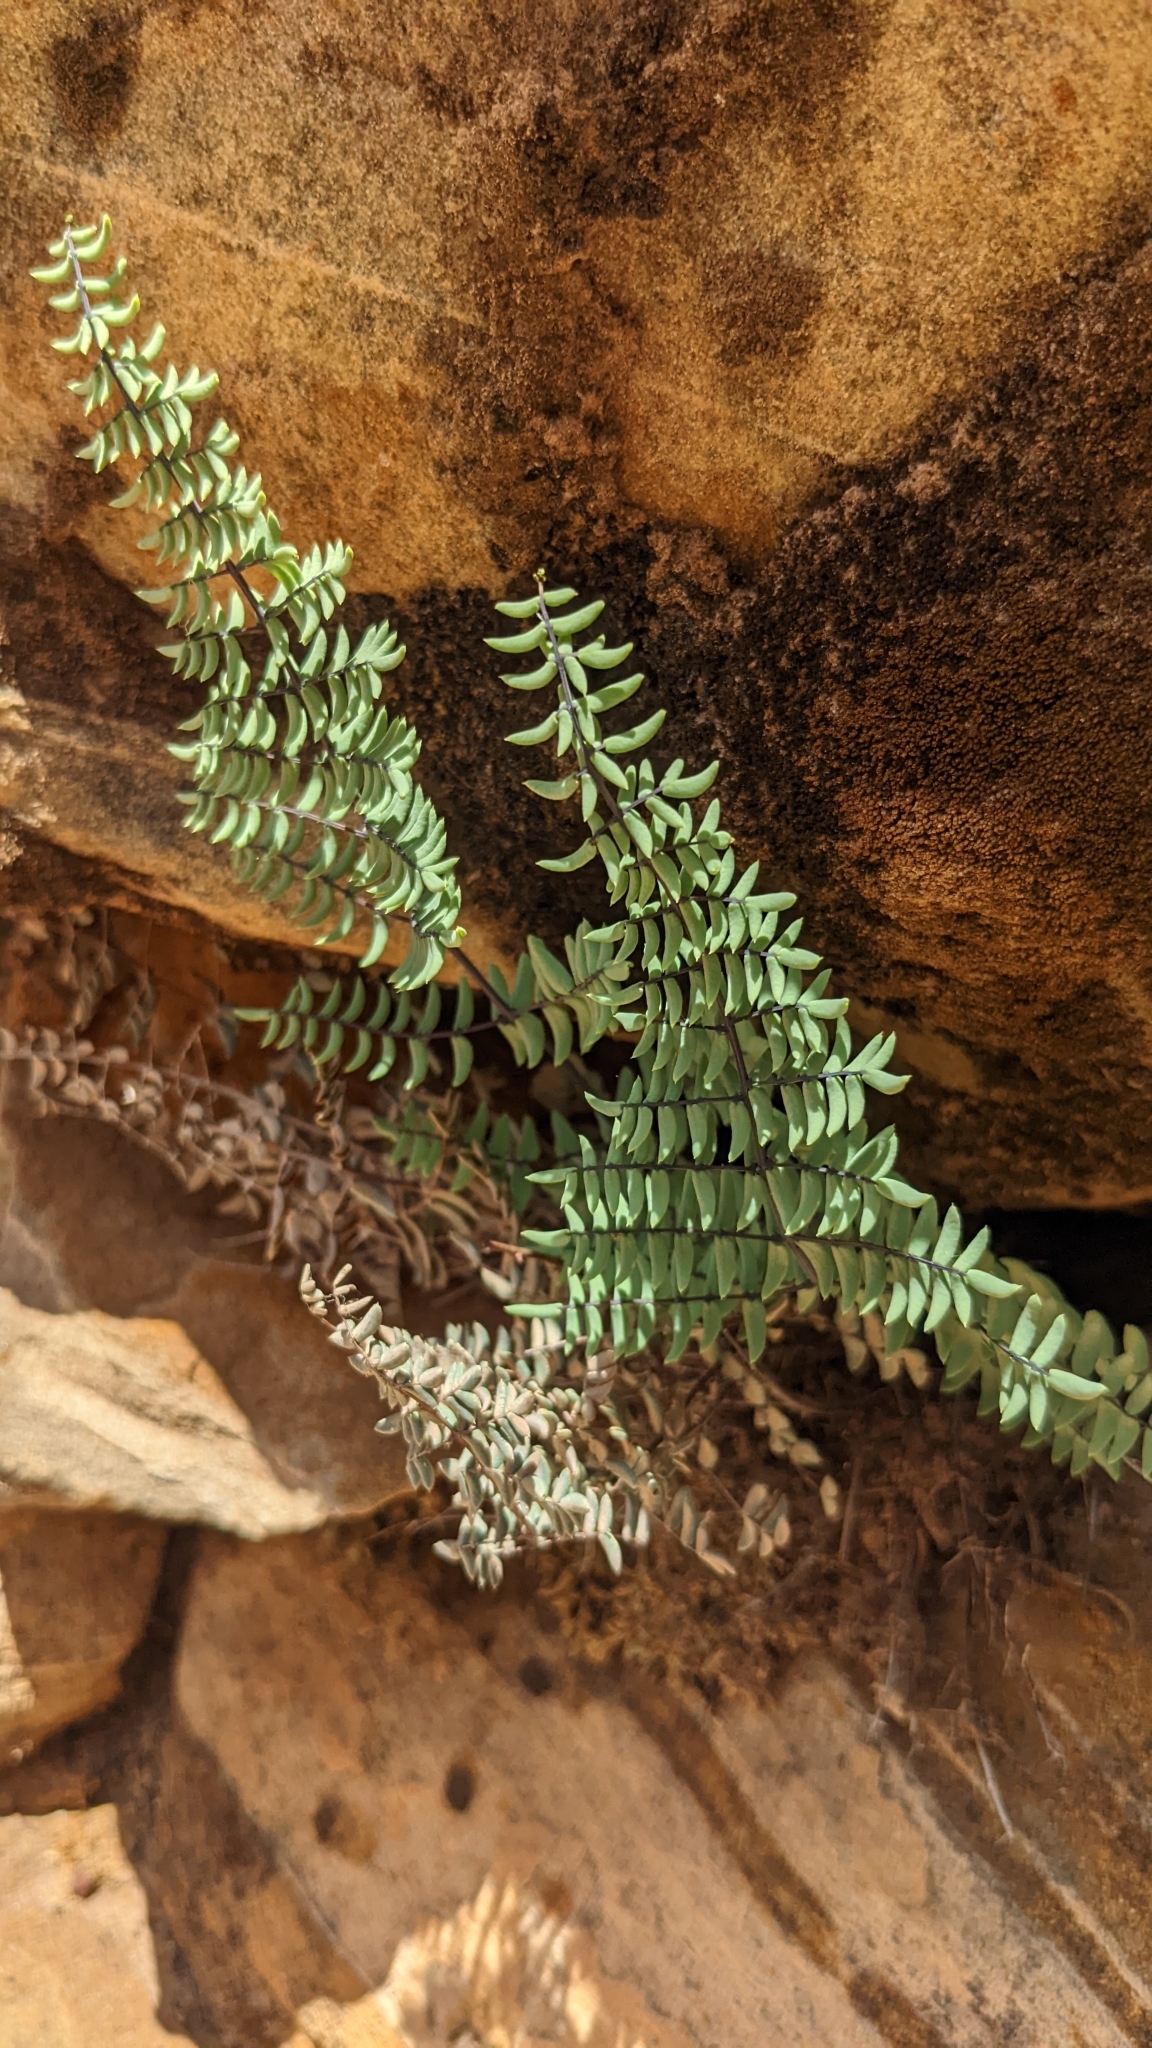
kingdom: Plantae
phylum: Tracheophyta
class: Polypodiopsida
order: Polypodiales
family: Pteridaceae
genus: Pellaea
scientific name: Pellaea truncata
